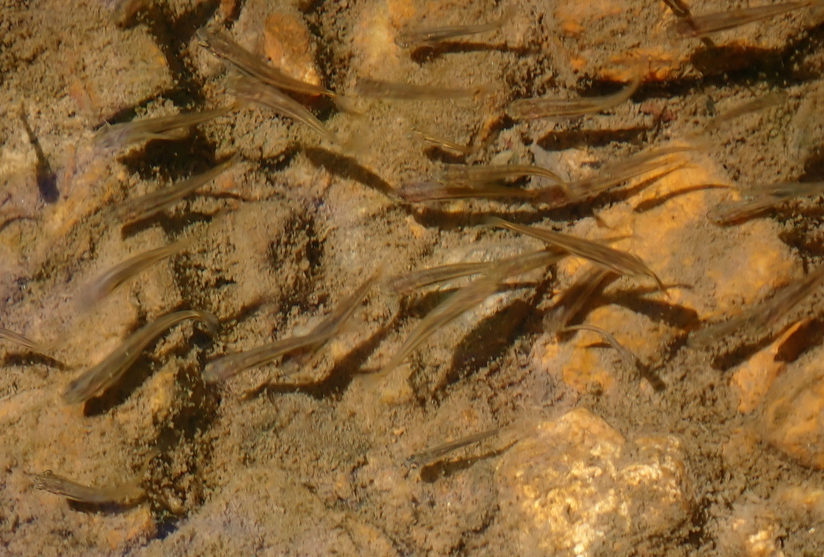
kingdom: Animalia
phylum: Chordata
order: Cypriniformes
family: Cyprinidae
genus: Rhinichthys
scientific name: Rhinichthys obtusus
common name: Western blacknose dace
